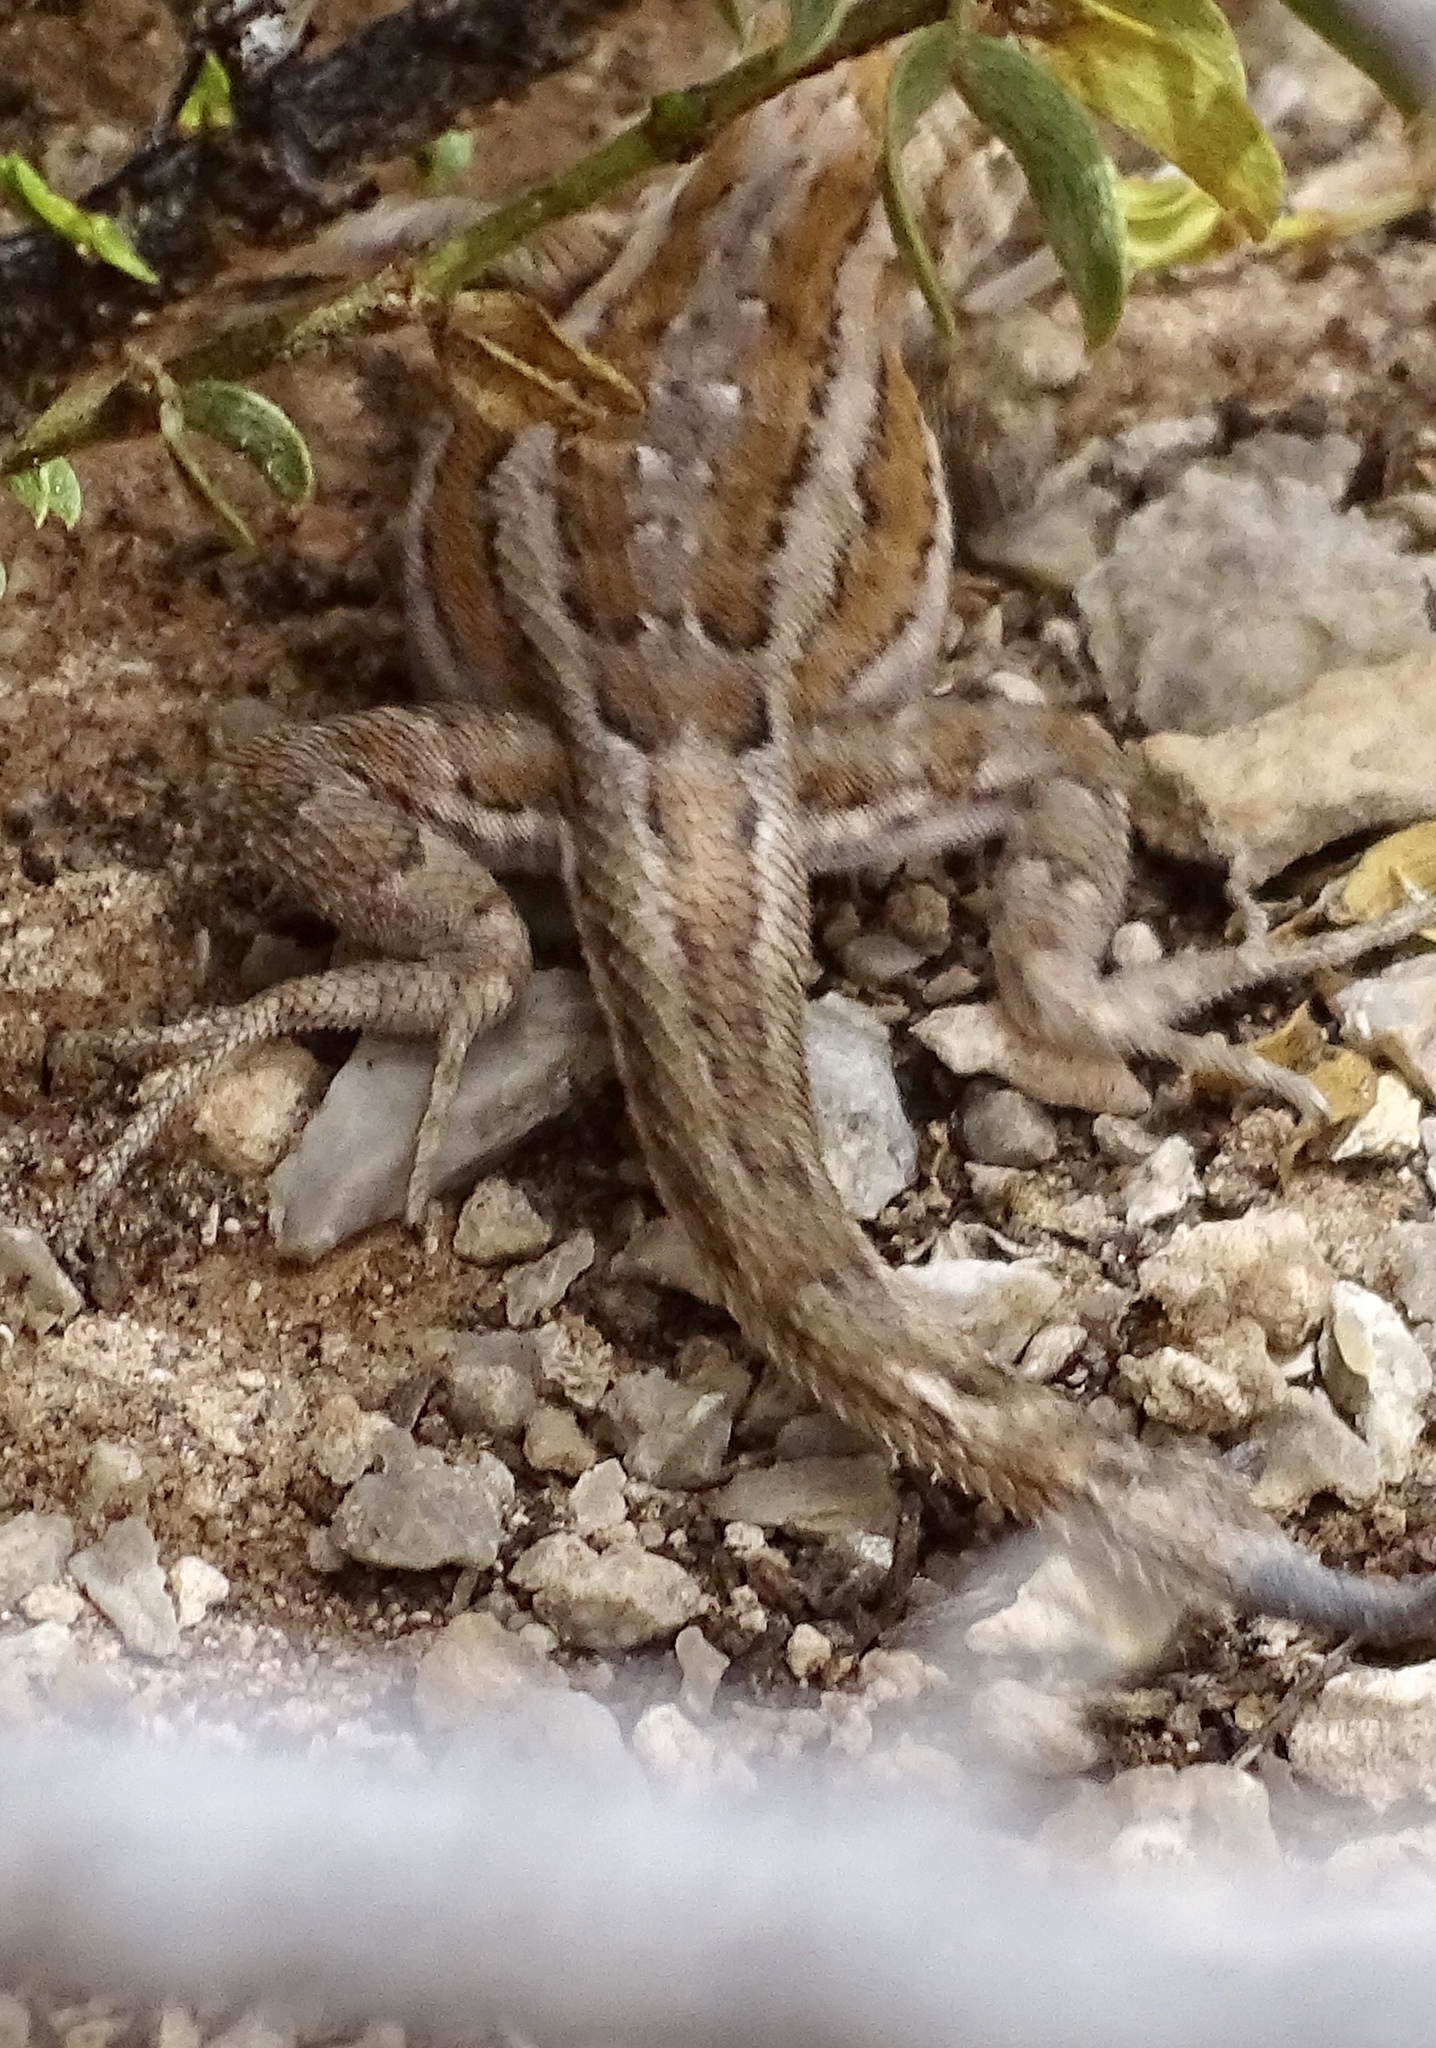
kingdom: Animalia
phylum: Chordata
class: Squamata
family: Phrynosomatidae
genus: Uta
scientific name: Uta stansburiana
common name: Side-blotched lizard
